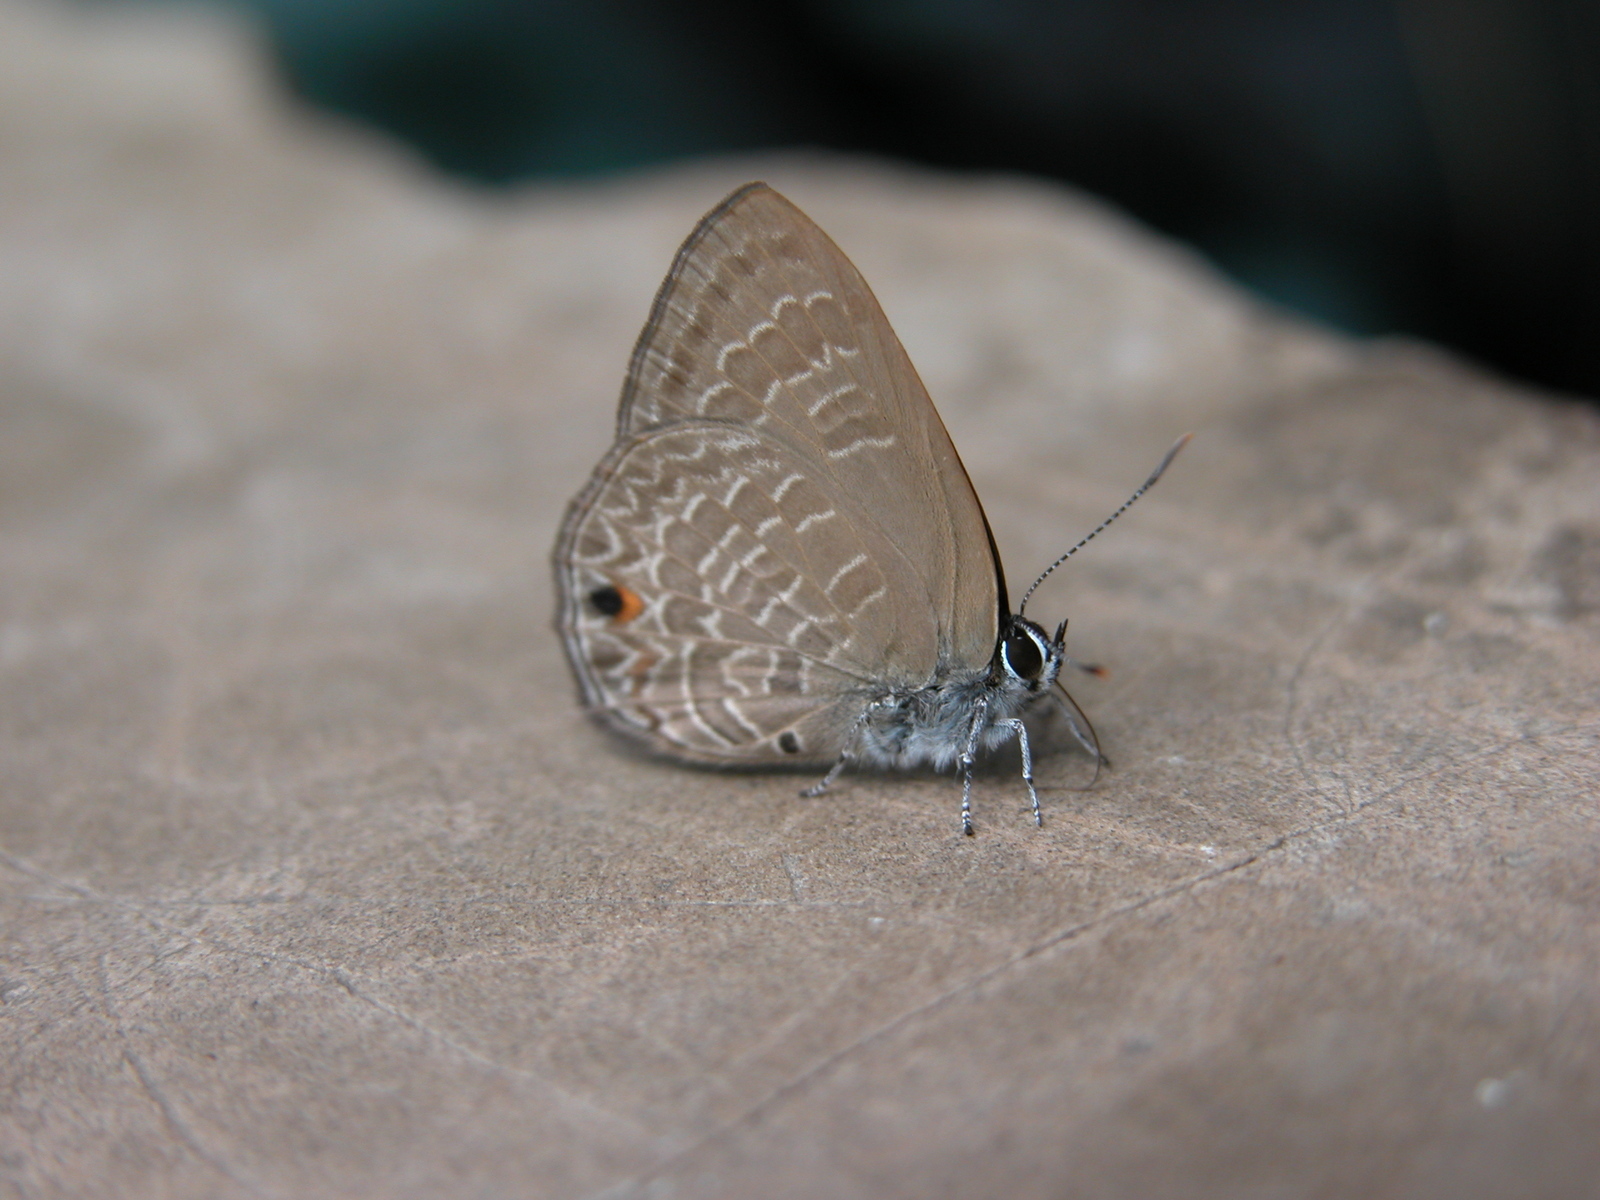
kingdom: Animalia
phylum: Arthropoda
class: Insecta
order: Lepidoptera
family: Lycaenidae
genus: Anthene
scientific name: Anthene lycaenina
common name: Pointed ciliate blue
